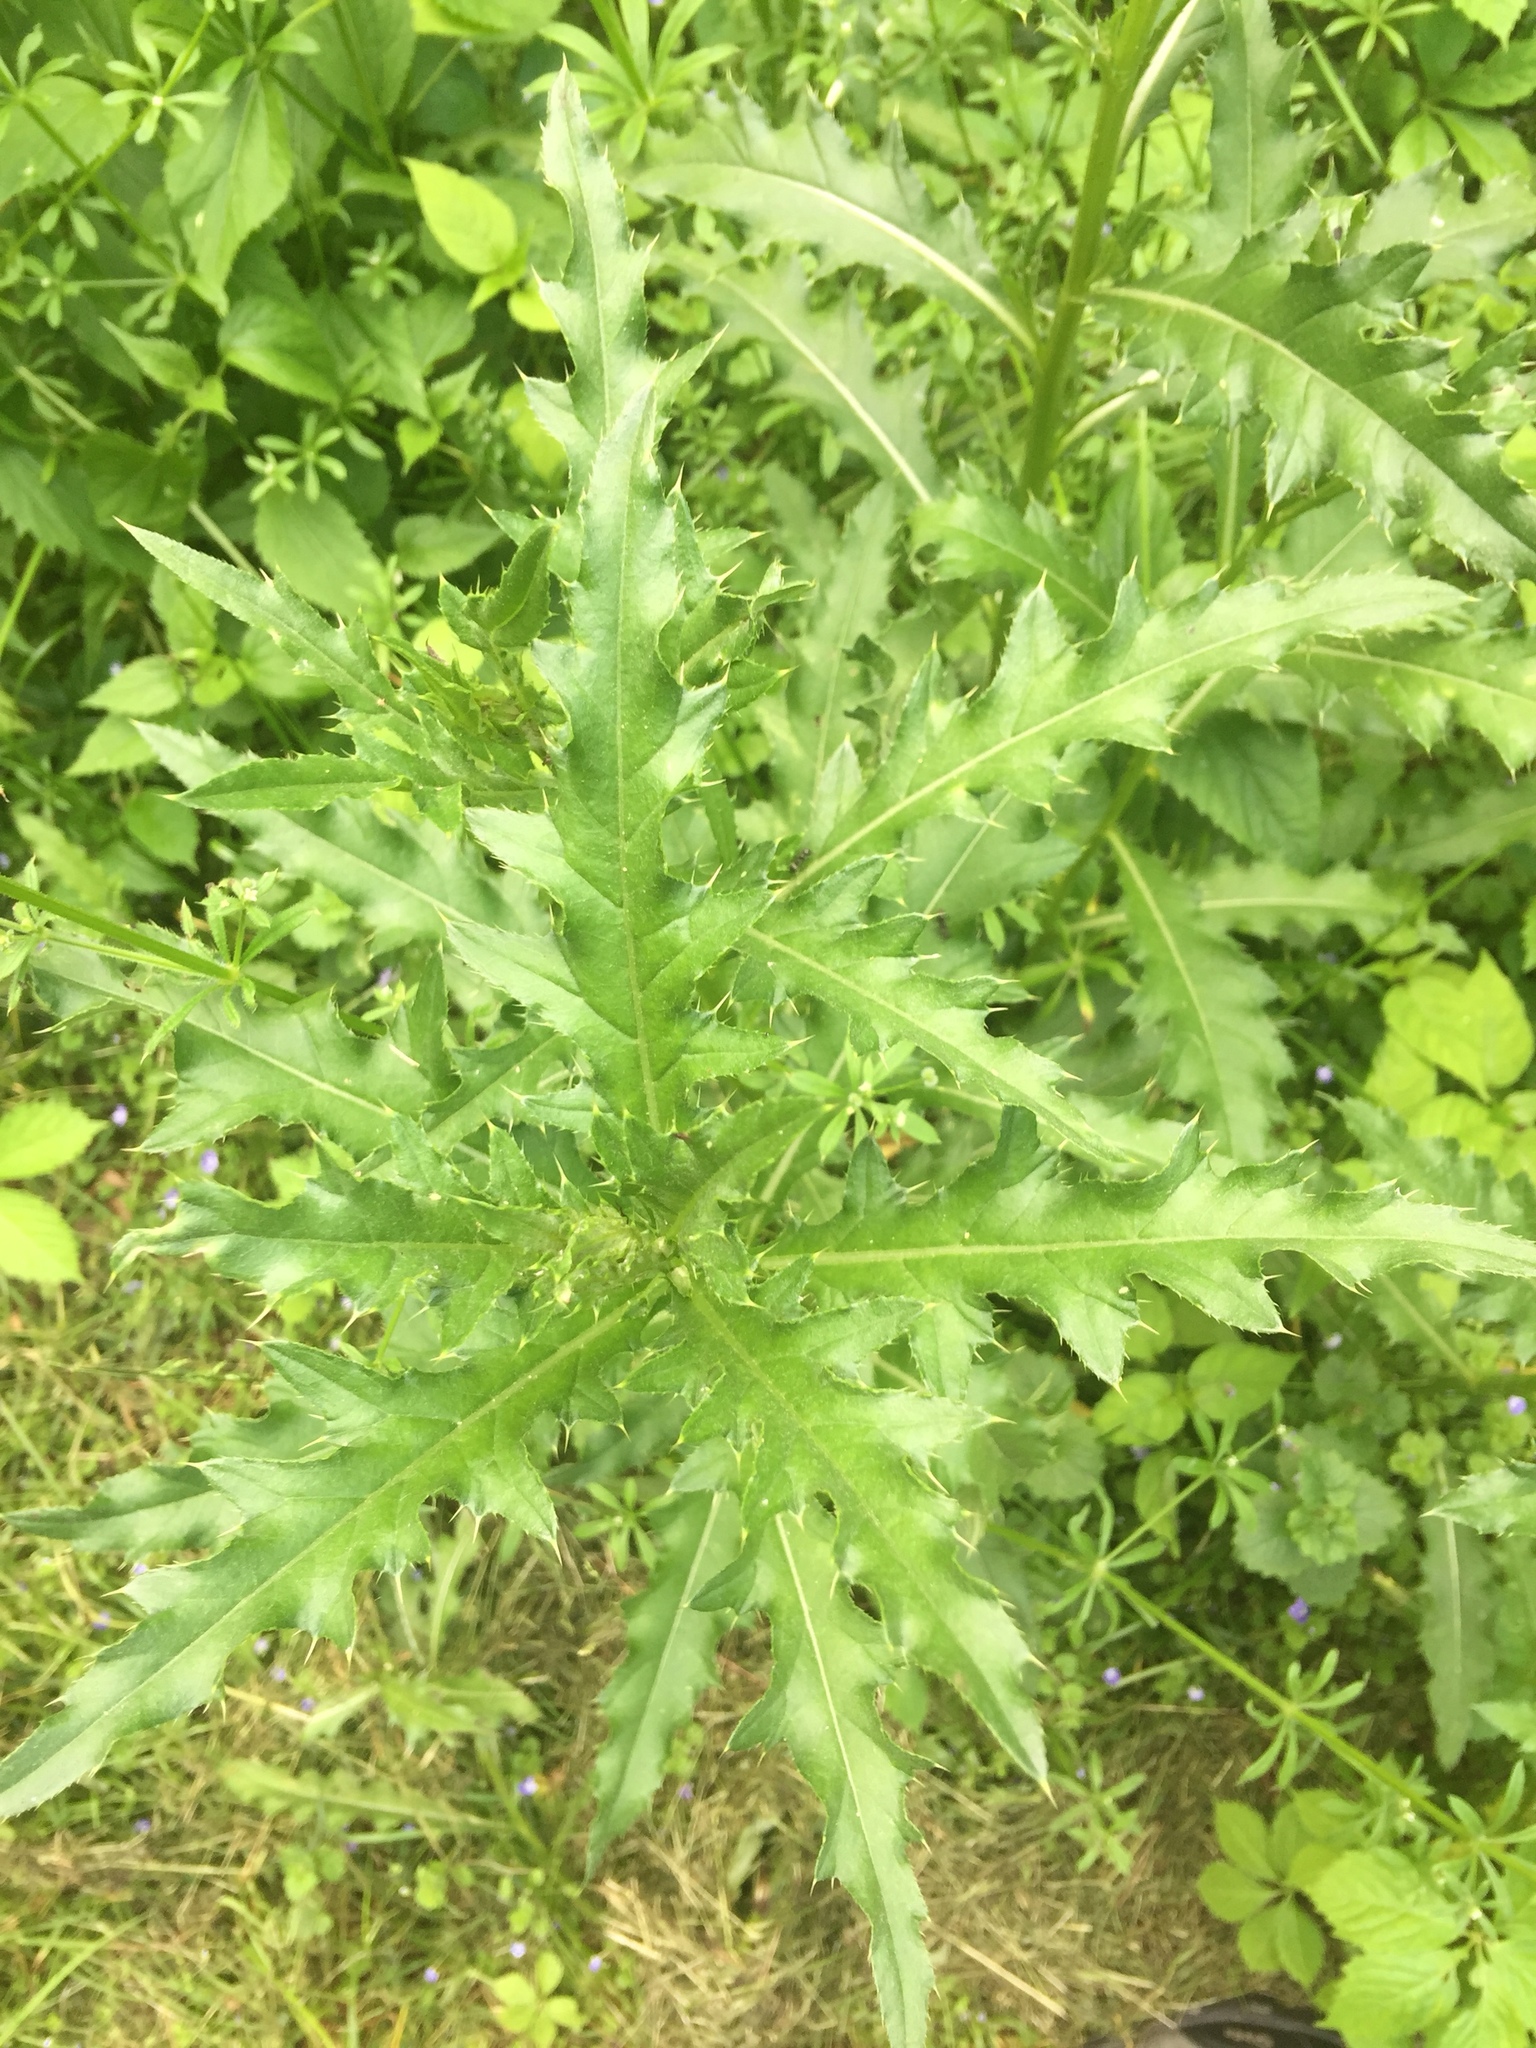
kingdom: Plantae
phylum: Tracheophyta
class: Magnoliopsida
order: Asterales
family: Asteraceae
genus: Cirsium
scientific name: Cirsium arvense
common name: Creeping thistle
